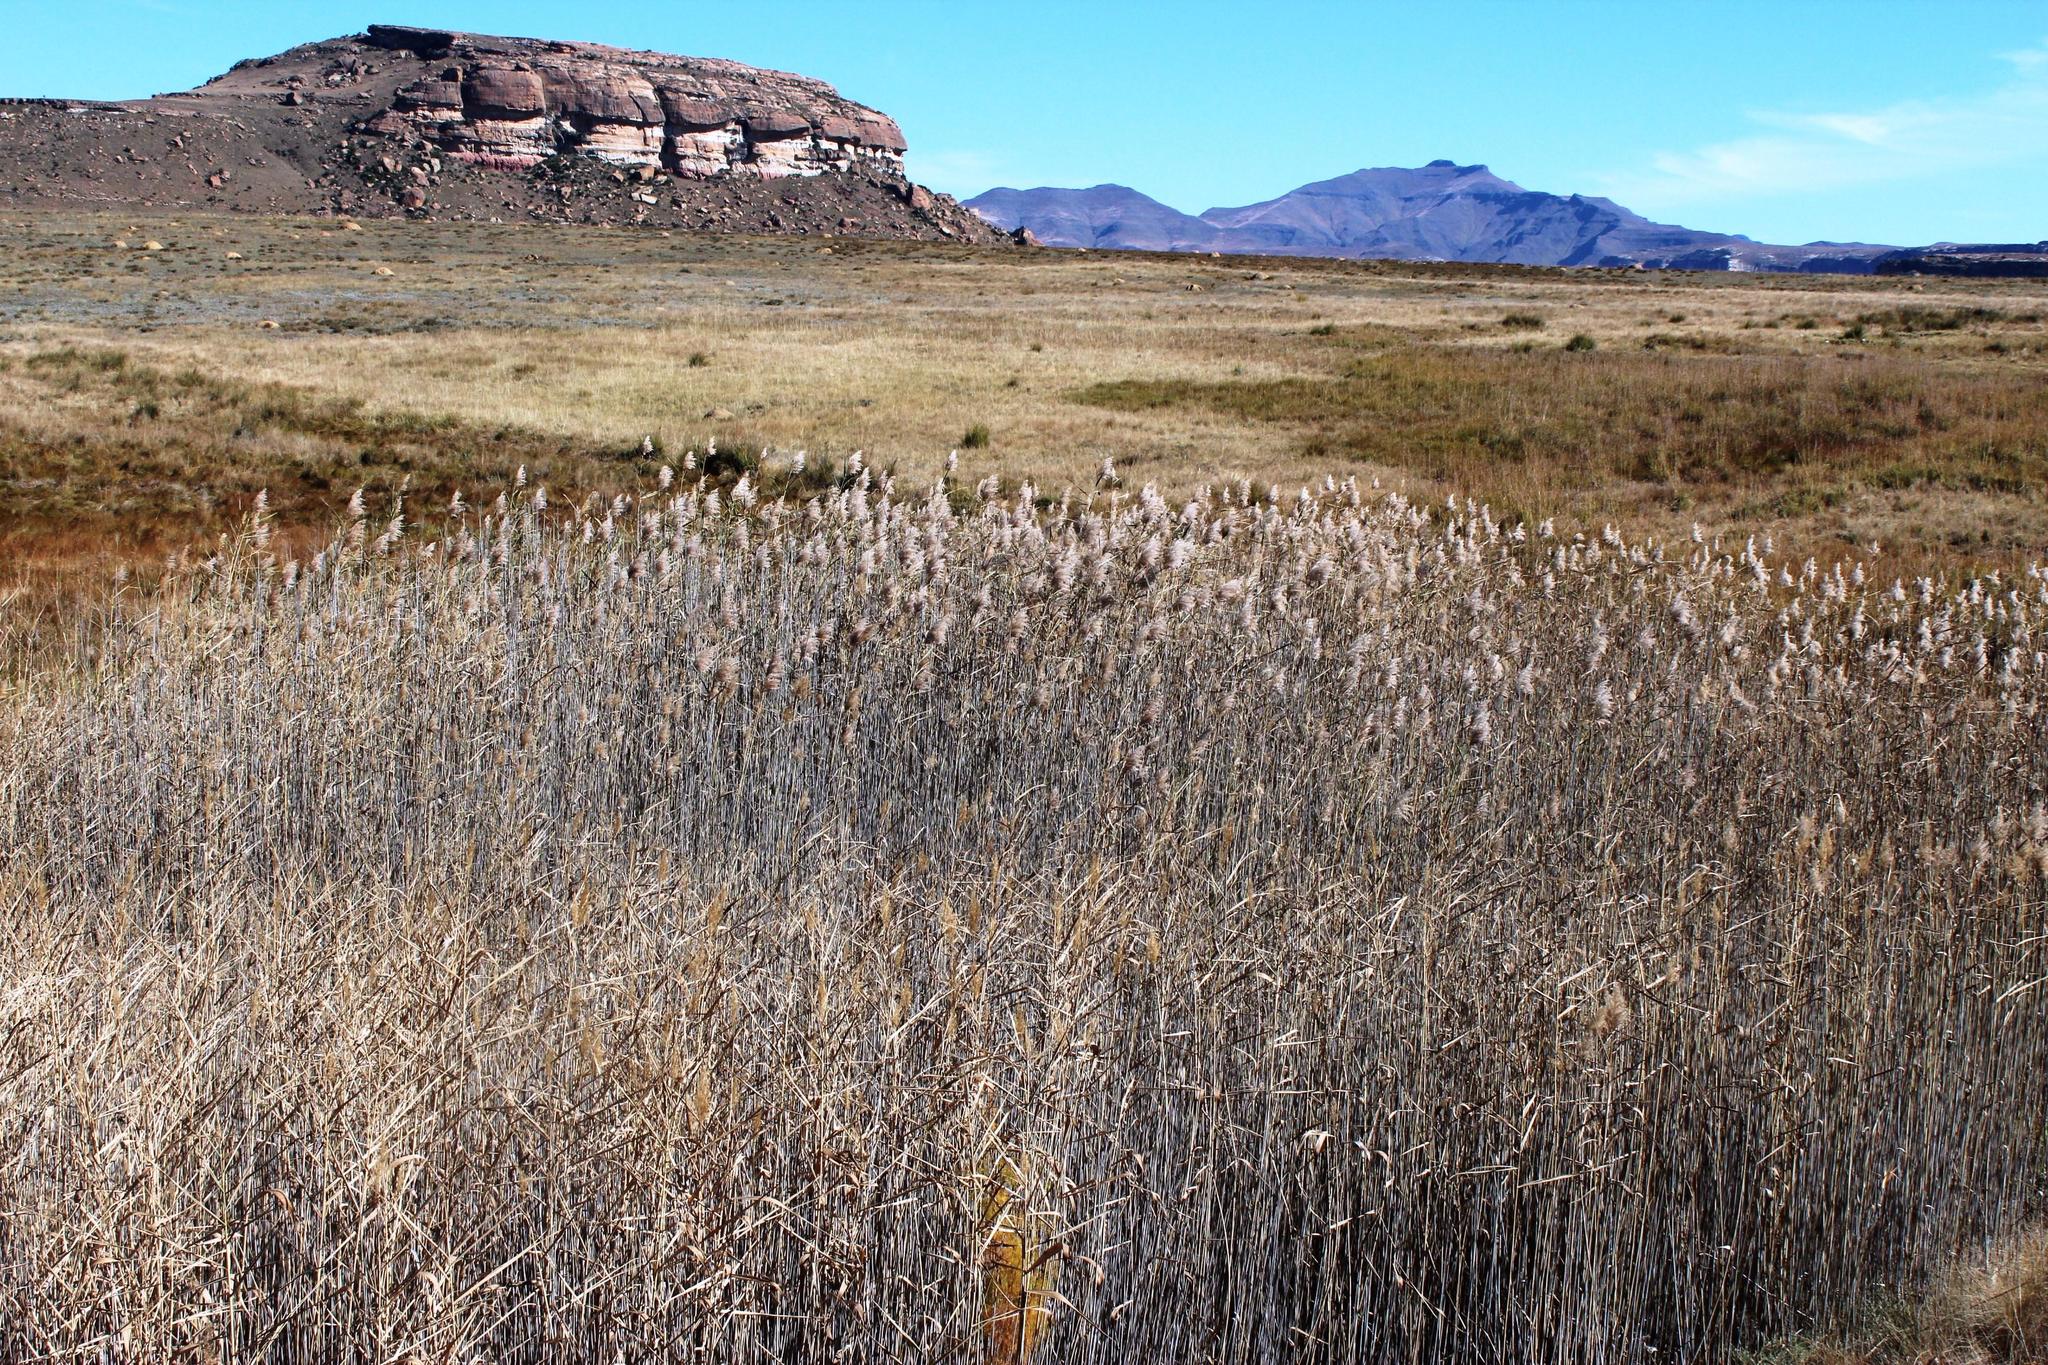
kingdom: Plantae
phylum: Tracheophyta
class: Liliopsida
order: Poales
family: Poaceae
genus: Phragmites
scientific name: Phragmites australis
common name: Common reed
